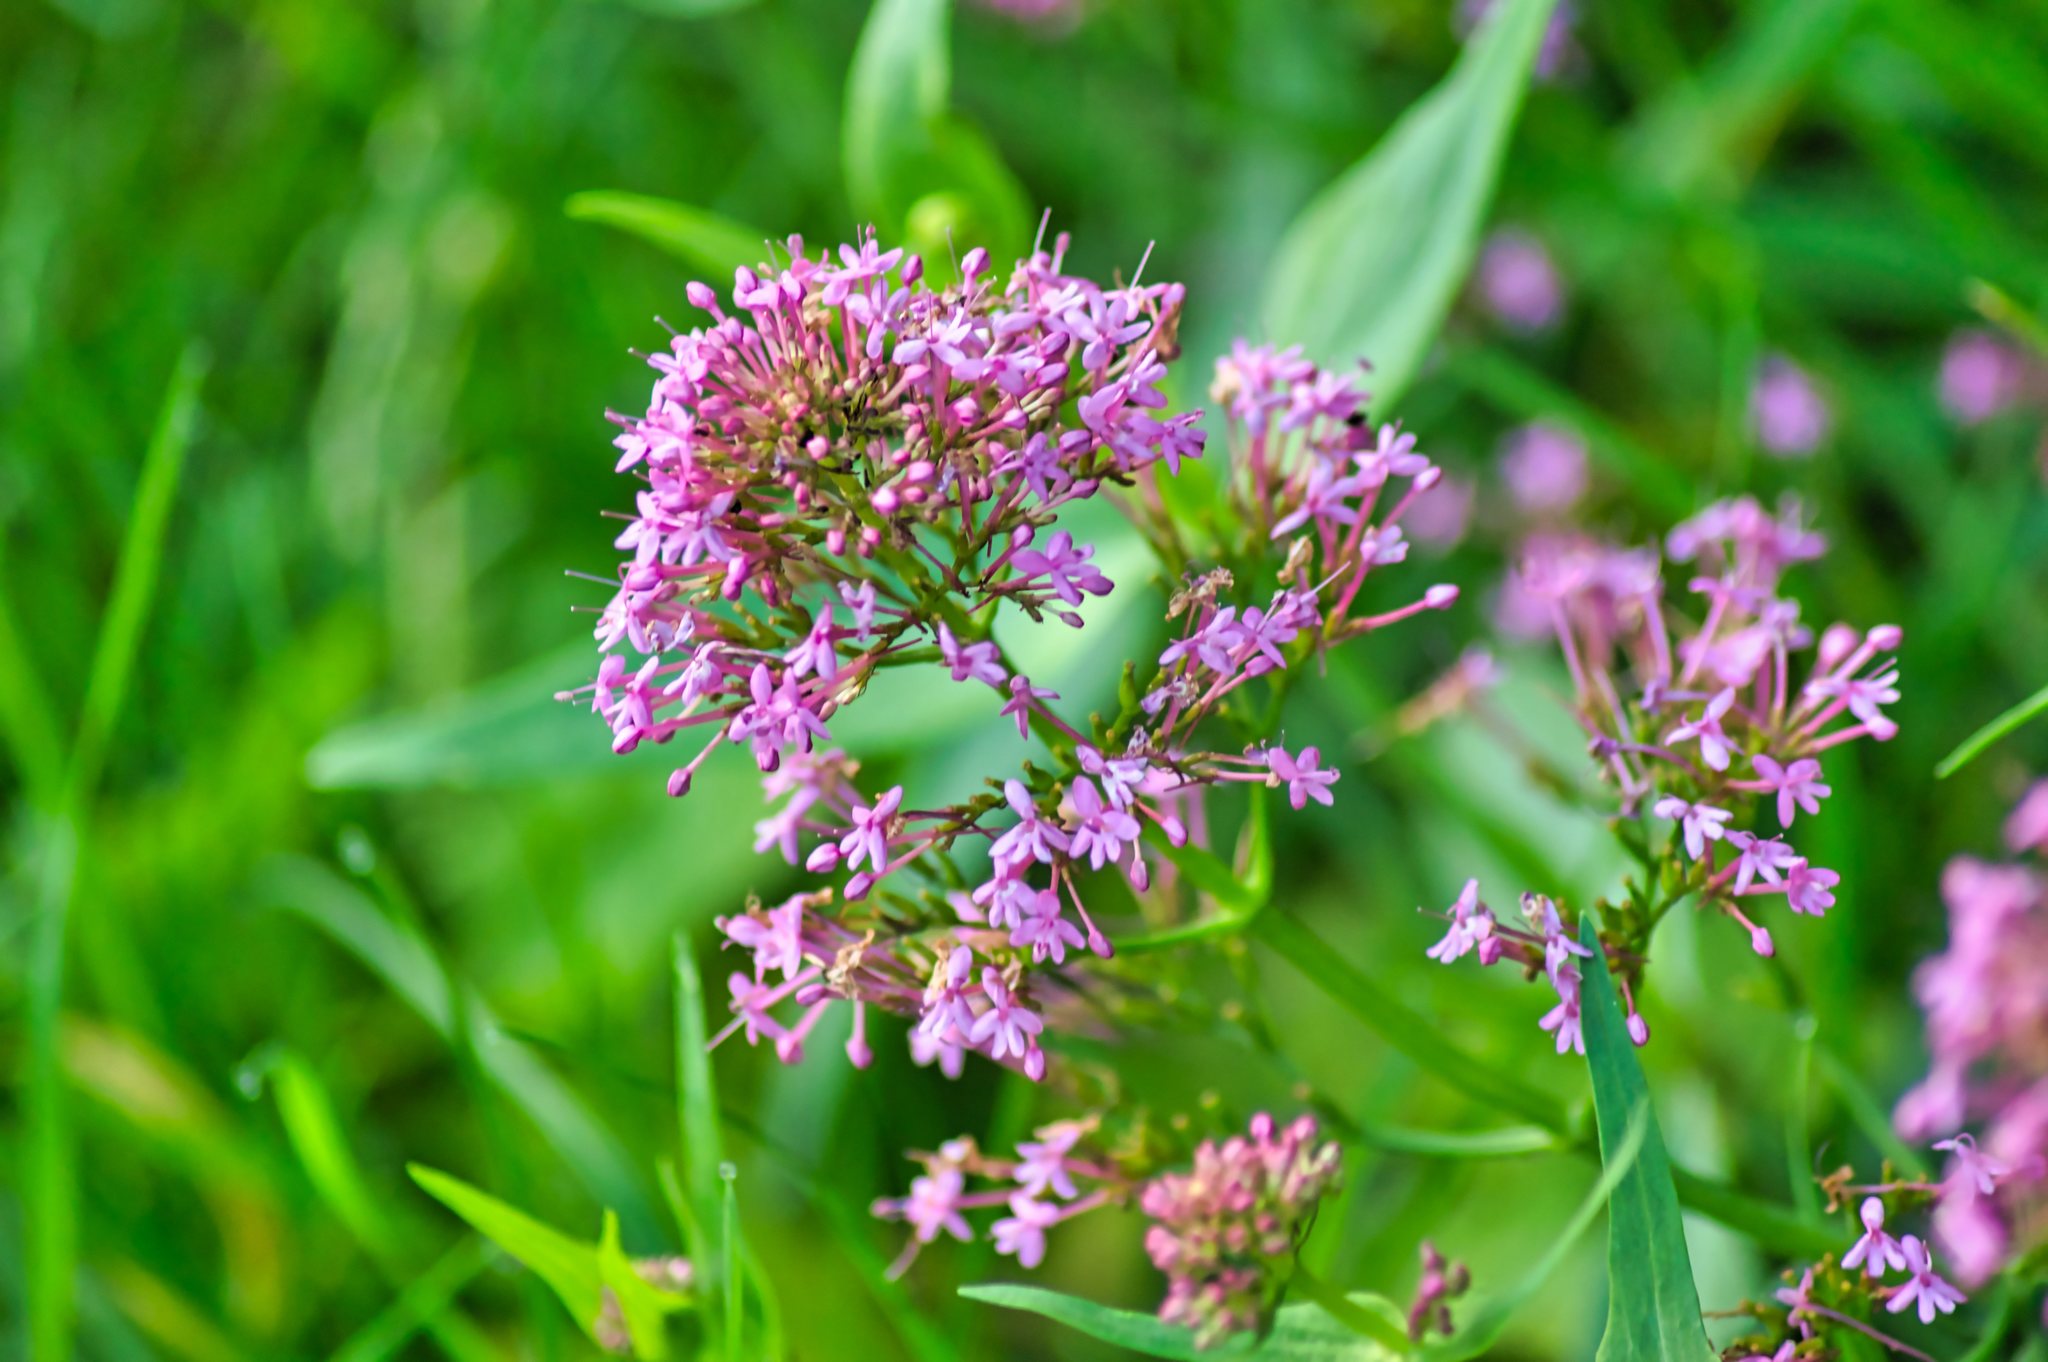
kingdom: Plantae
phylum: Tracheophyta
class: Magnoliopsida
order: Dipsacales
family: Caprifoliaceae
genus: Centranthus
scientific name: Centranthus ruber
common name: Red valerian
